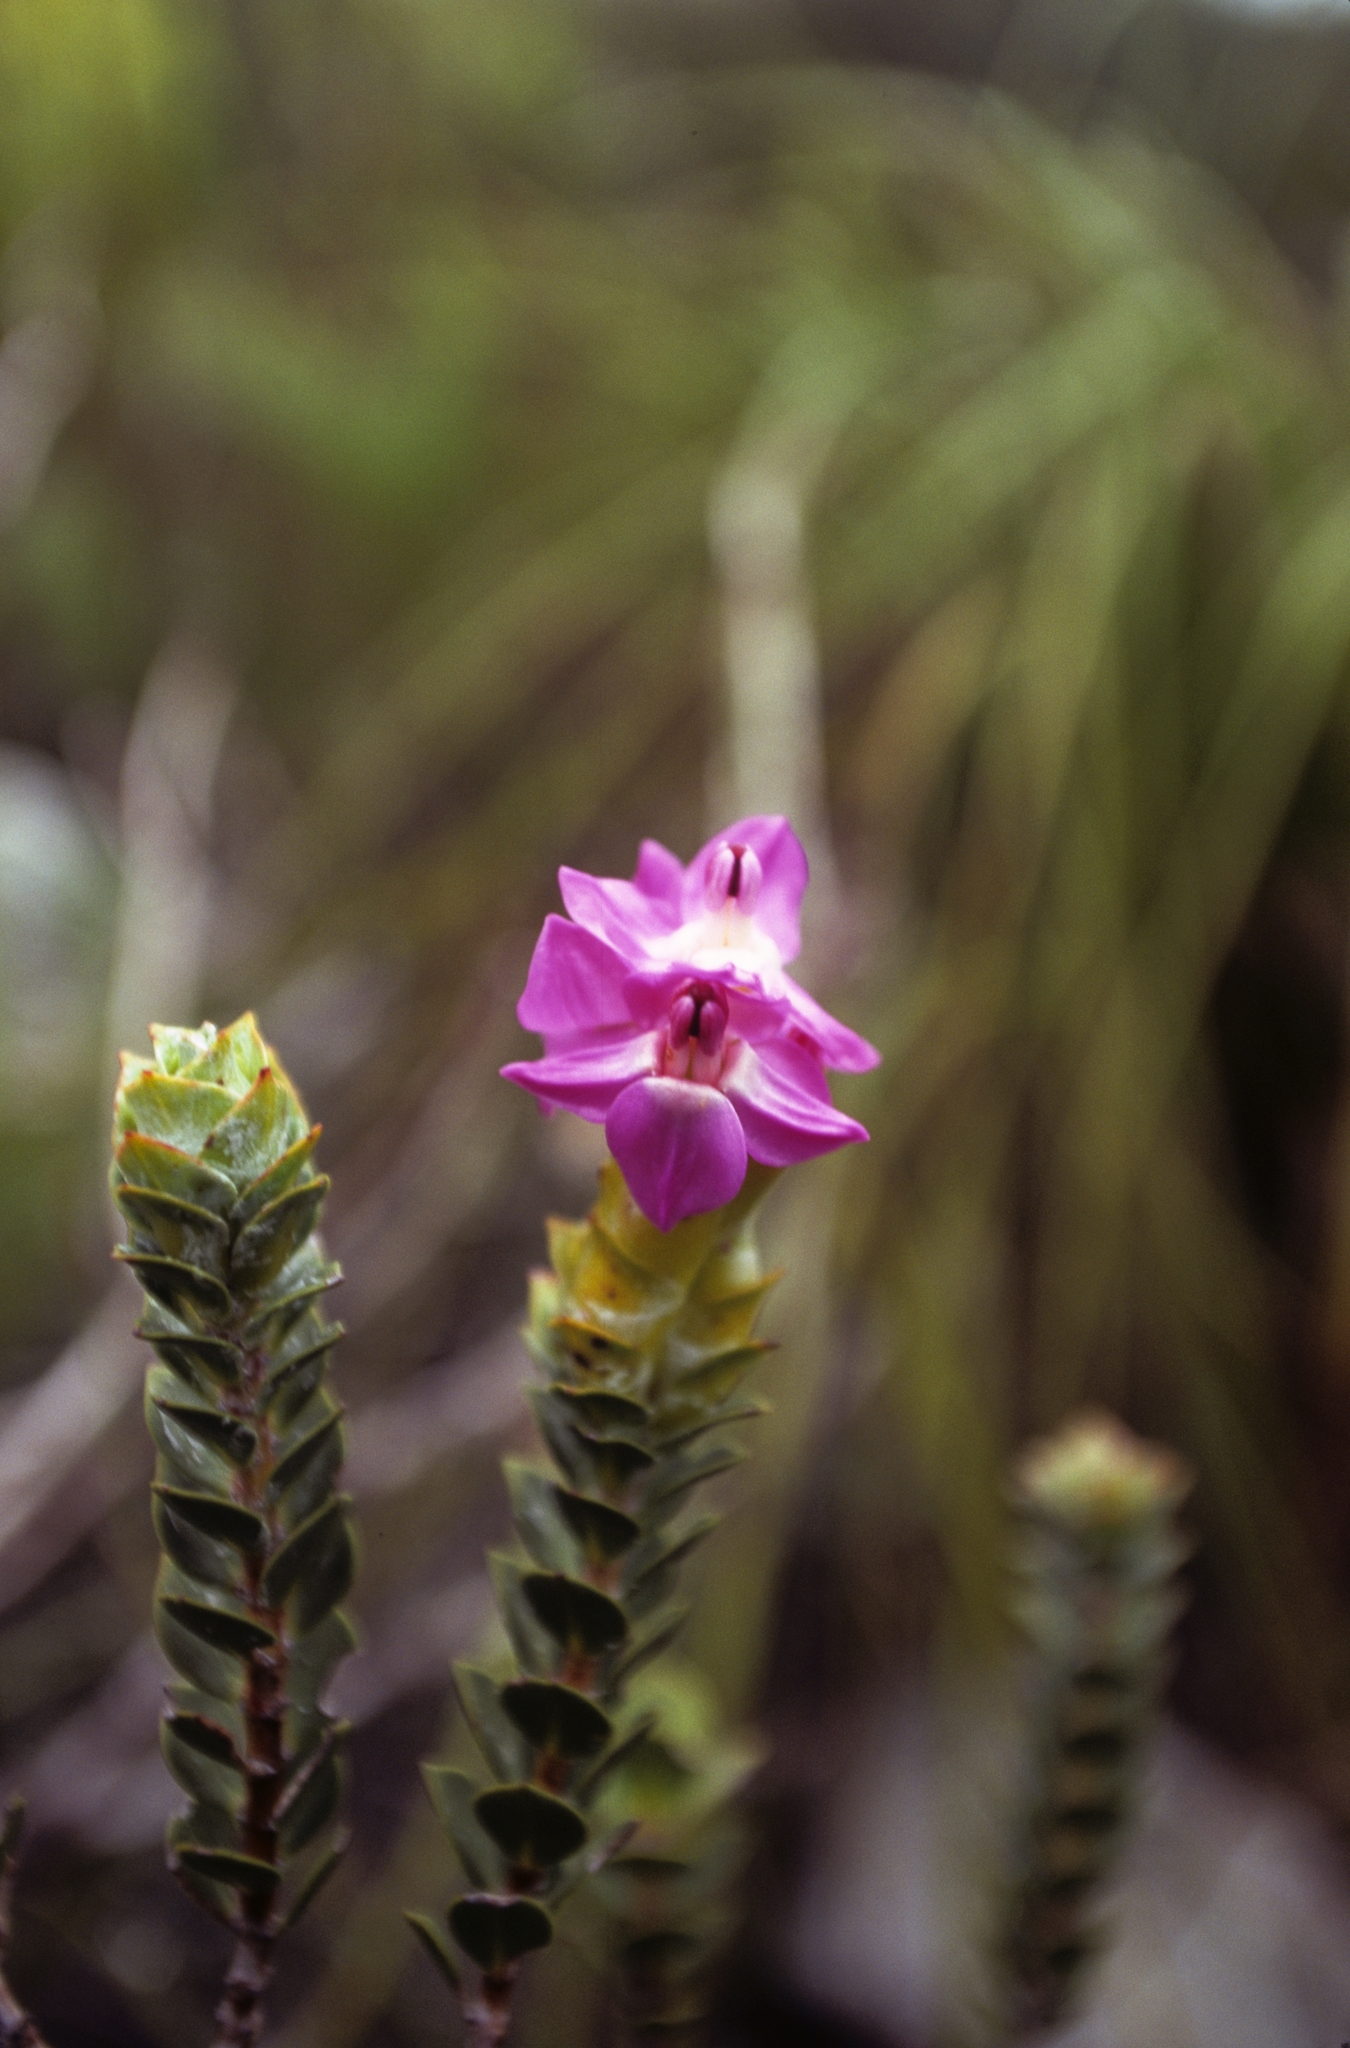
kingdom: Plantae
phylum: Tracheophyta
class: Magnoliopsida
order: Myrtales
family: Penaeaceae
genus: Saltera
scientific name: Saltera sarcocolla
